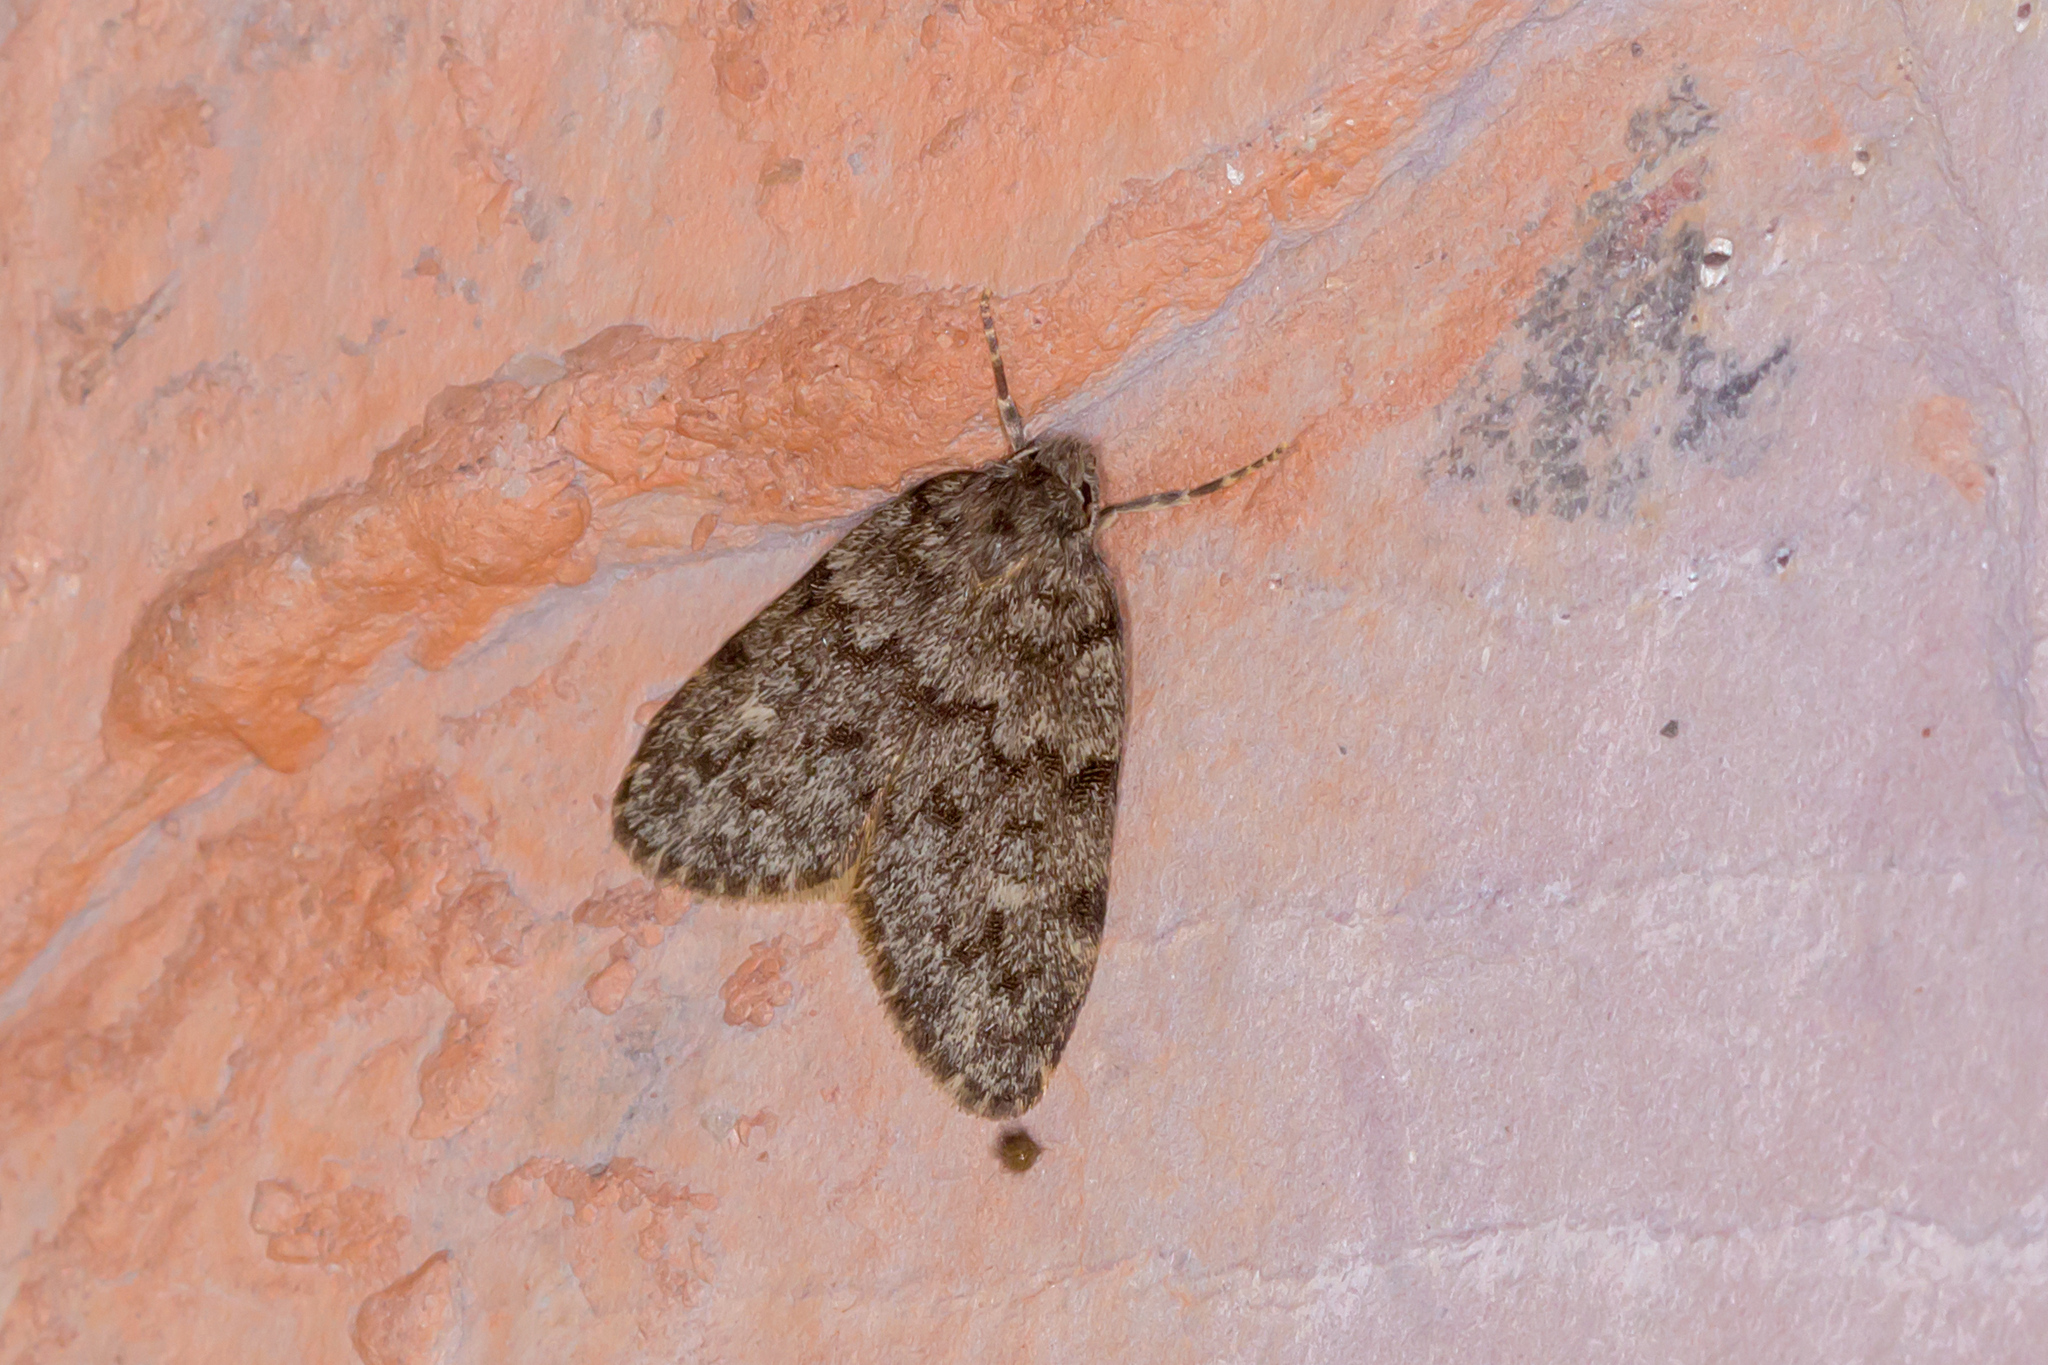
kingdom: Animalia
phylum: Arthropoda
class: Insecta
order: Lepidoptera
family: Erebidae
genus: Halone
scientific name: Halone consolatrix
